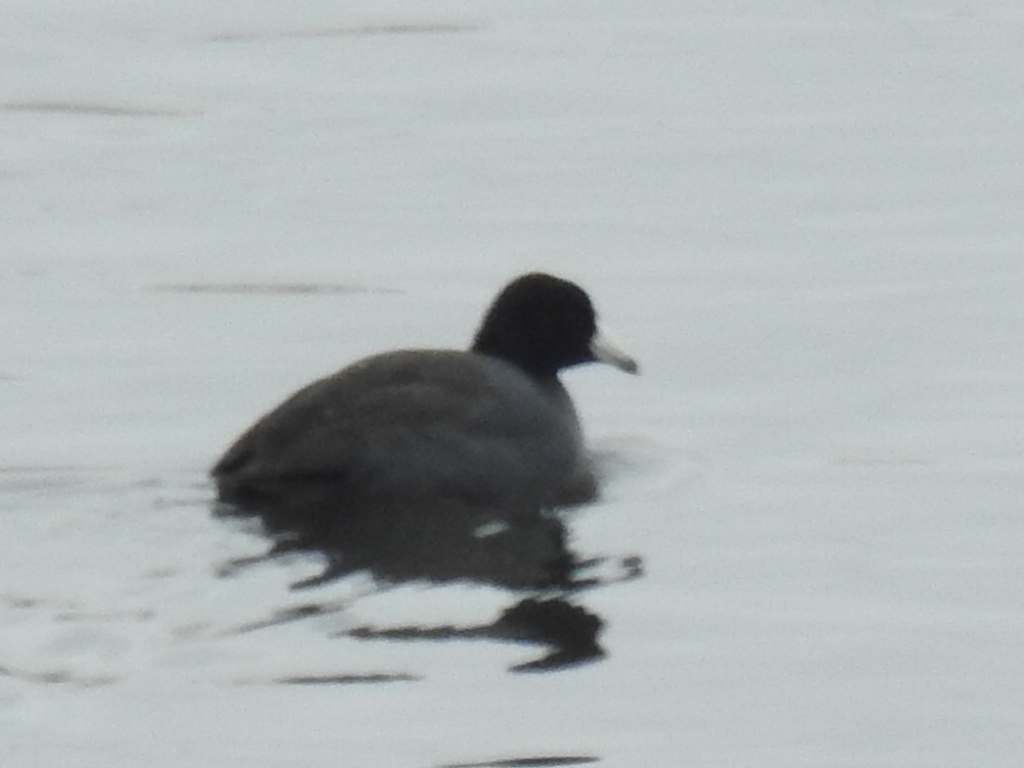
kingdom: Animalia
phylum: Chordata
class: Aves
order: Gruiformes
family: Rallidae
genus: Fulica
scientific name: Fulica americana
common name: American coot
